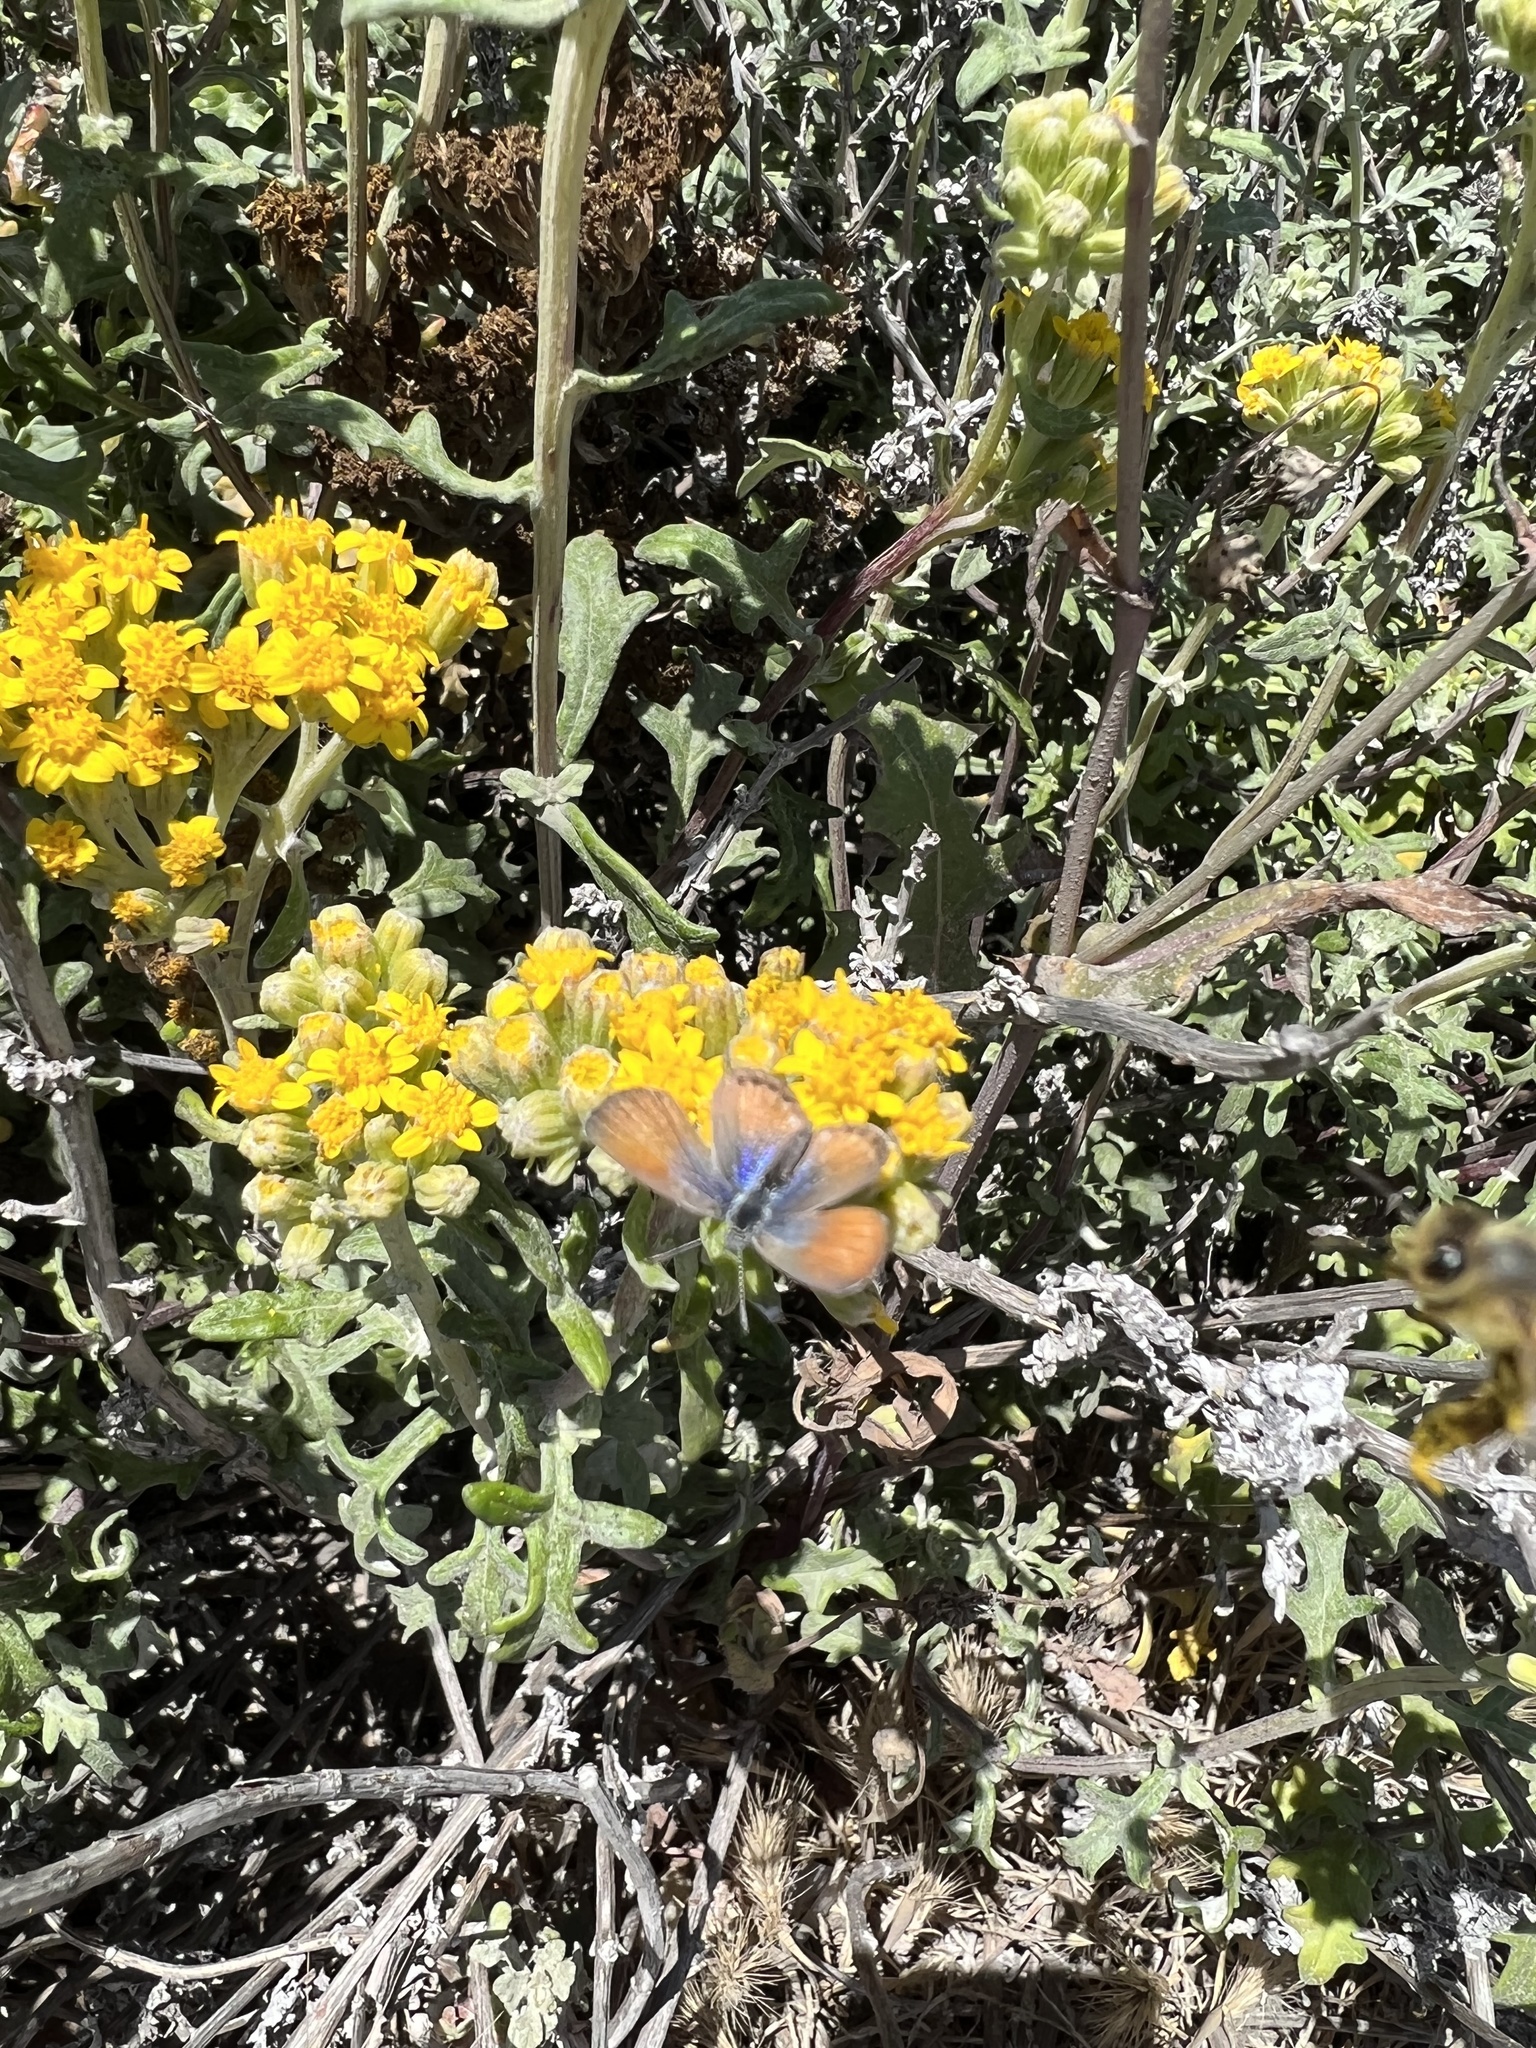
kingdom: Animalia
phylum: Arthropoda
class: Insecta
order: Lepidoptera
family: Lycaenidae
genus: Brephidium
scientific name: Brephidium exilis
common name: Pygmy blue
